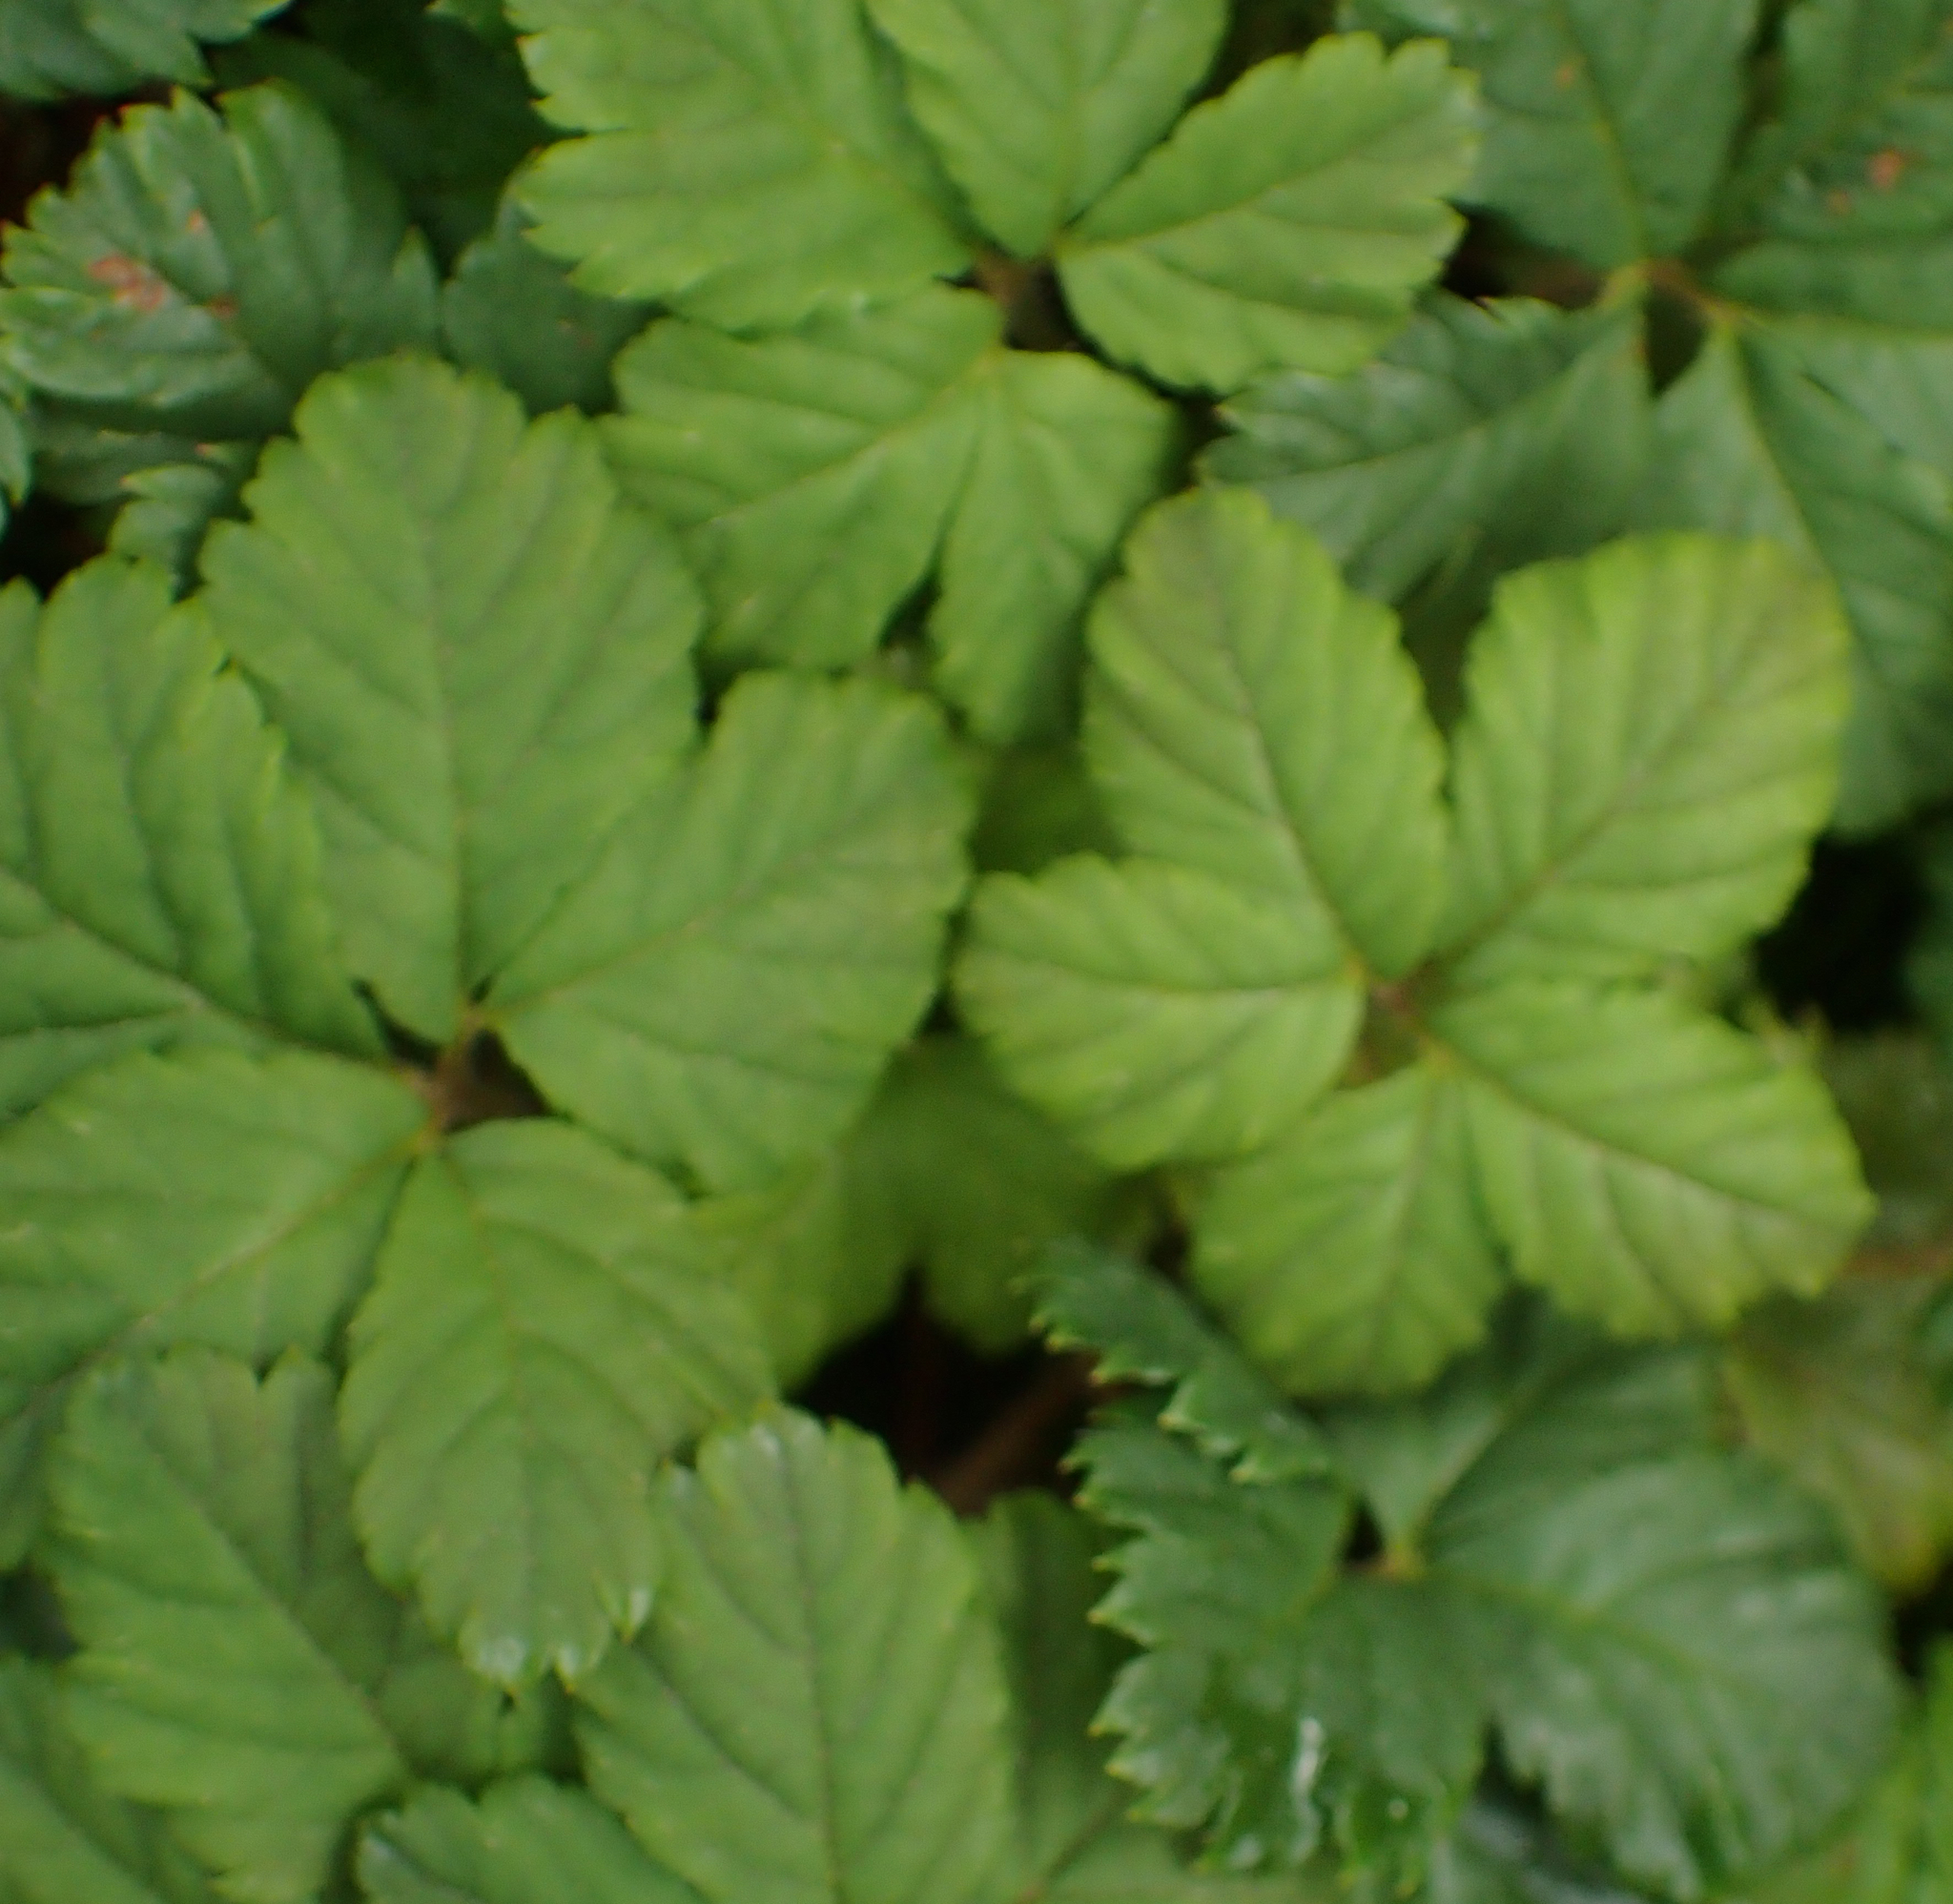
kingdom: Plantae
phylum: Tracheophyta
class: Magnoliopsida
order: Rosales
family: Rosaceae
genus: Rubus
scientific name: Rubus pedatus
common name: Creeping raspberry
